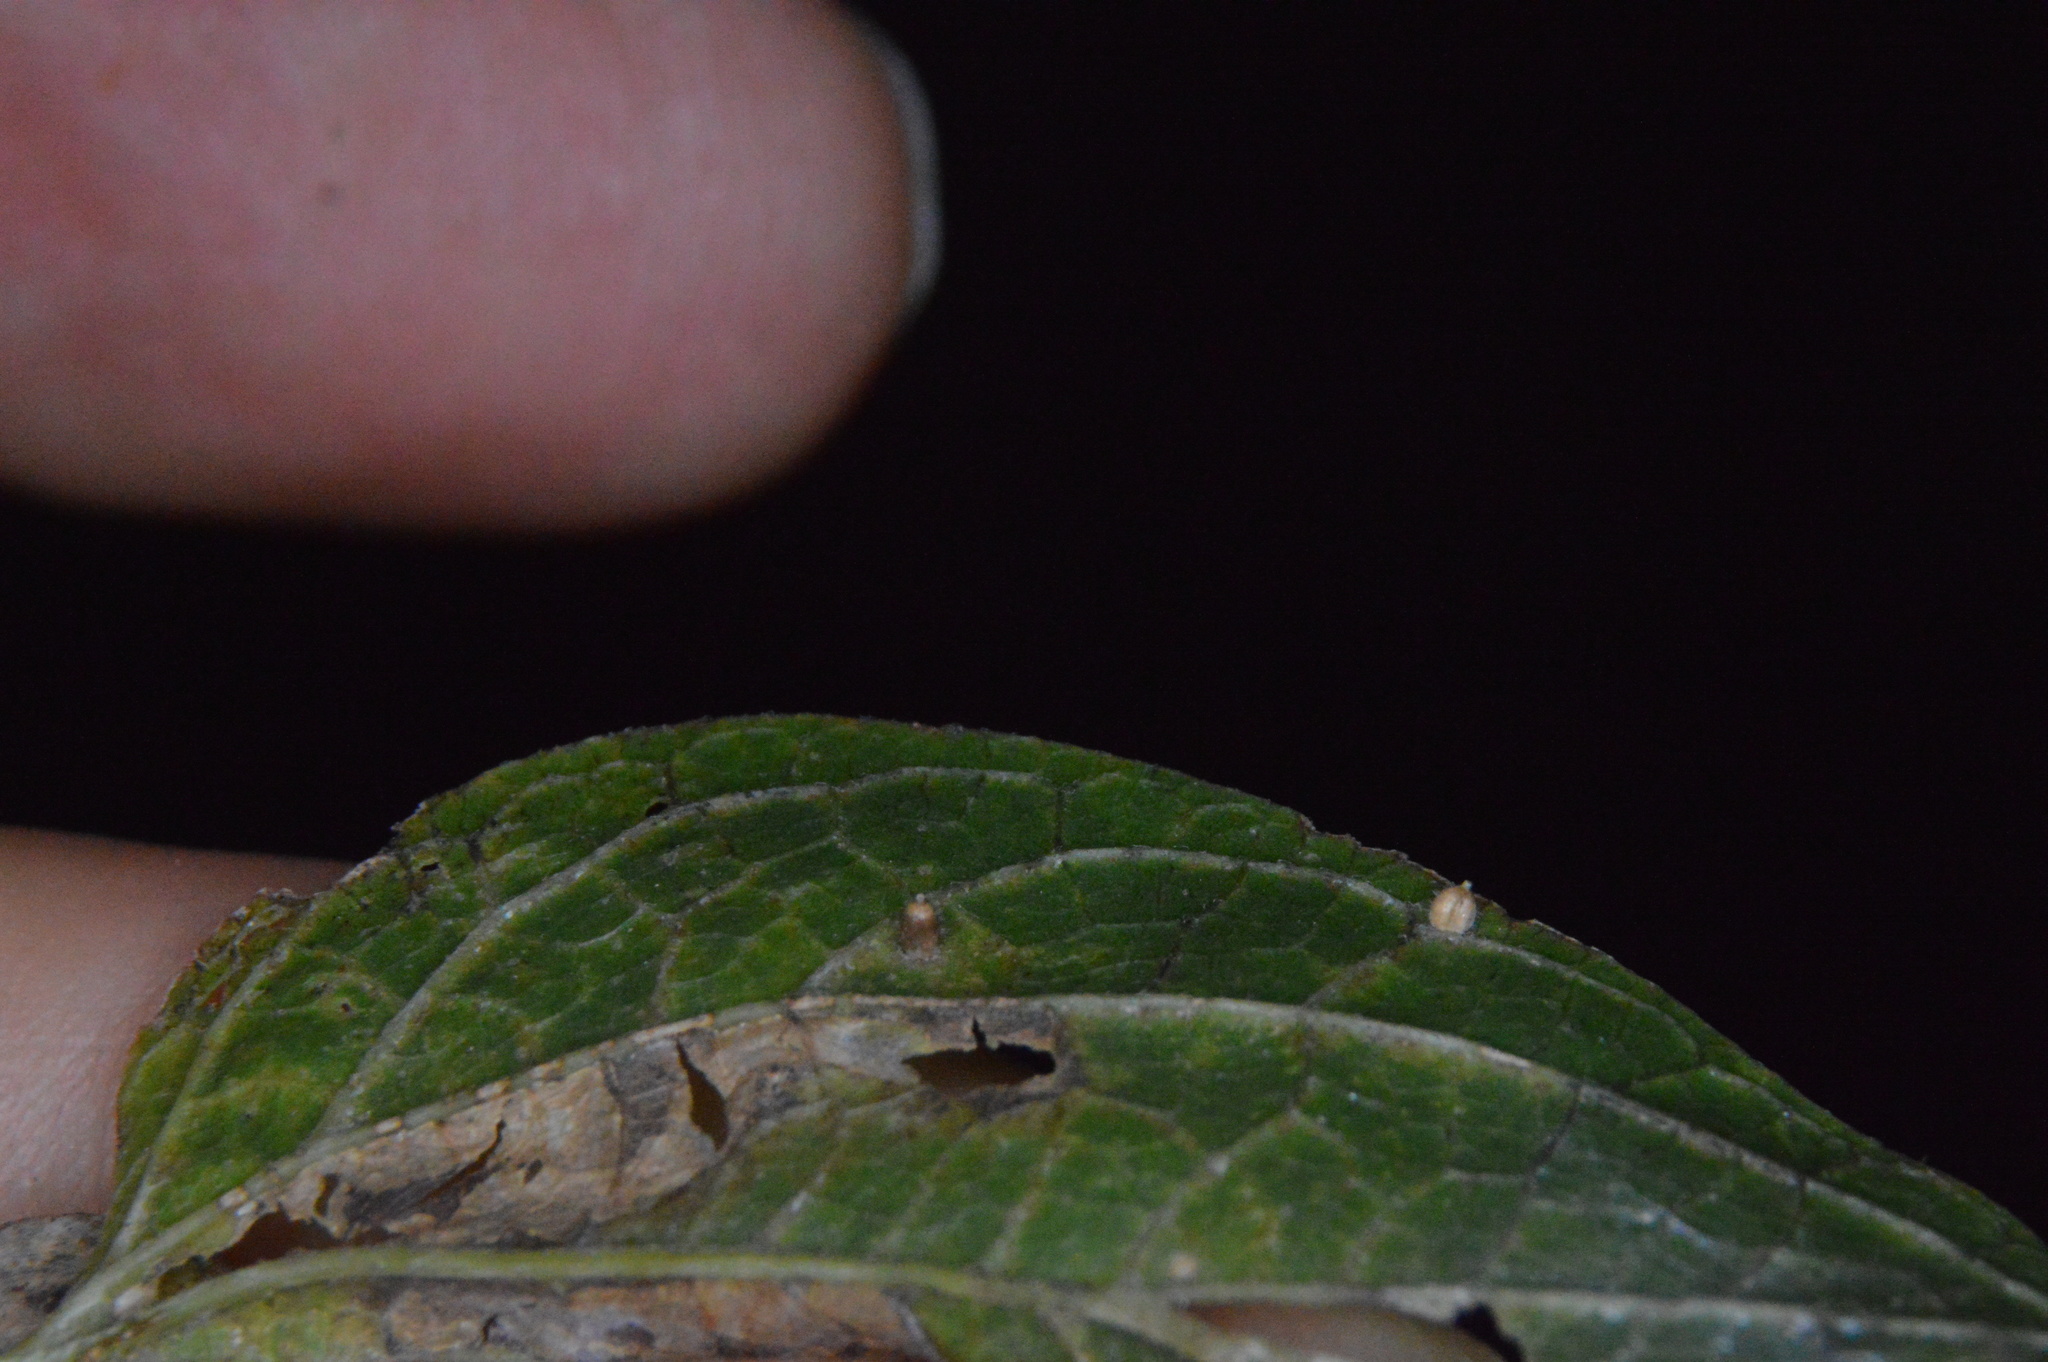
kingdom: Animalia
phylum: Arthropoda
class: Insecta
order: Diptera
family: Cecidomyiidae
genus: Celticecis
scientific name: Celticecis cupiformis
